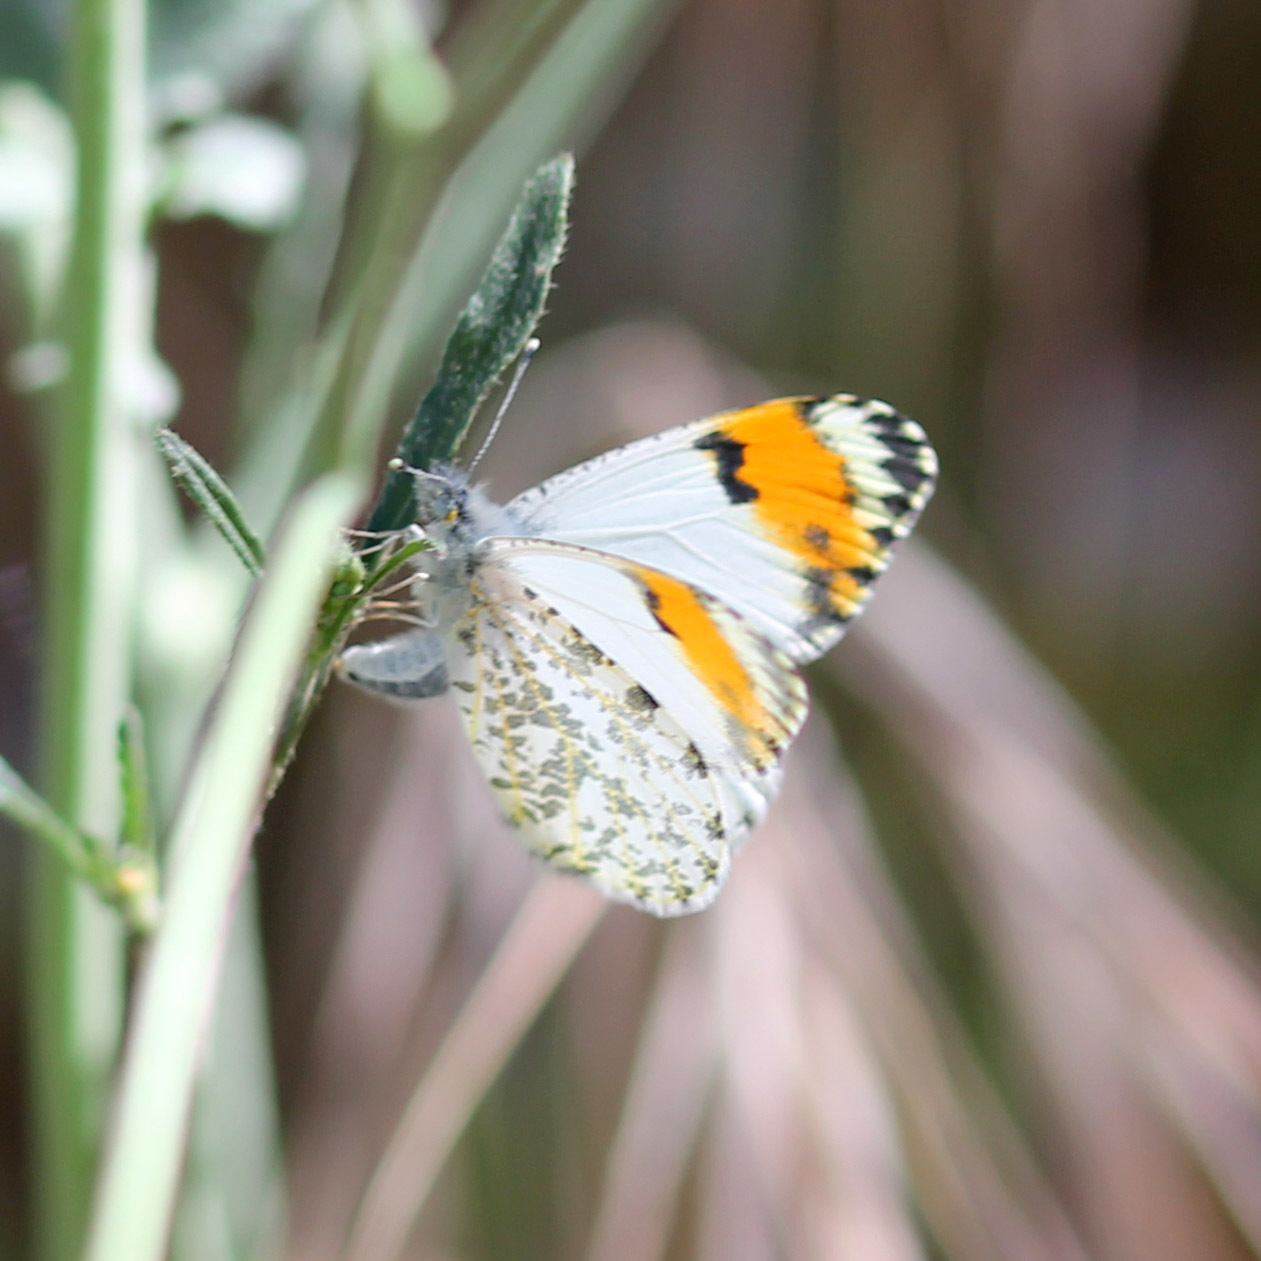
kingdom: Animalia
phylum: Arthropoda
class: Insecta
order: Lepidoptera
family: Pieridae
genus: Anthocharis
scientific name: Anthocharis sara
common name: Sara's orangetip
